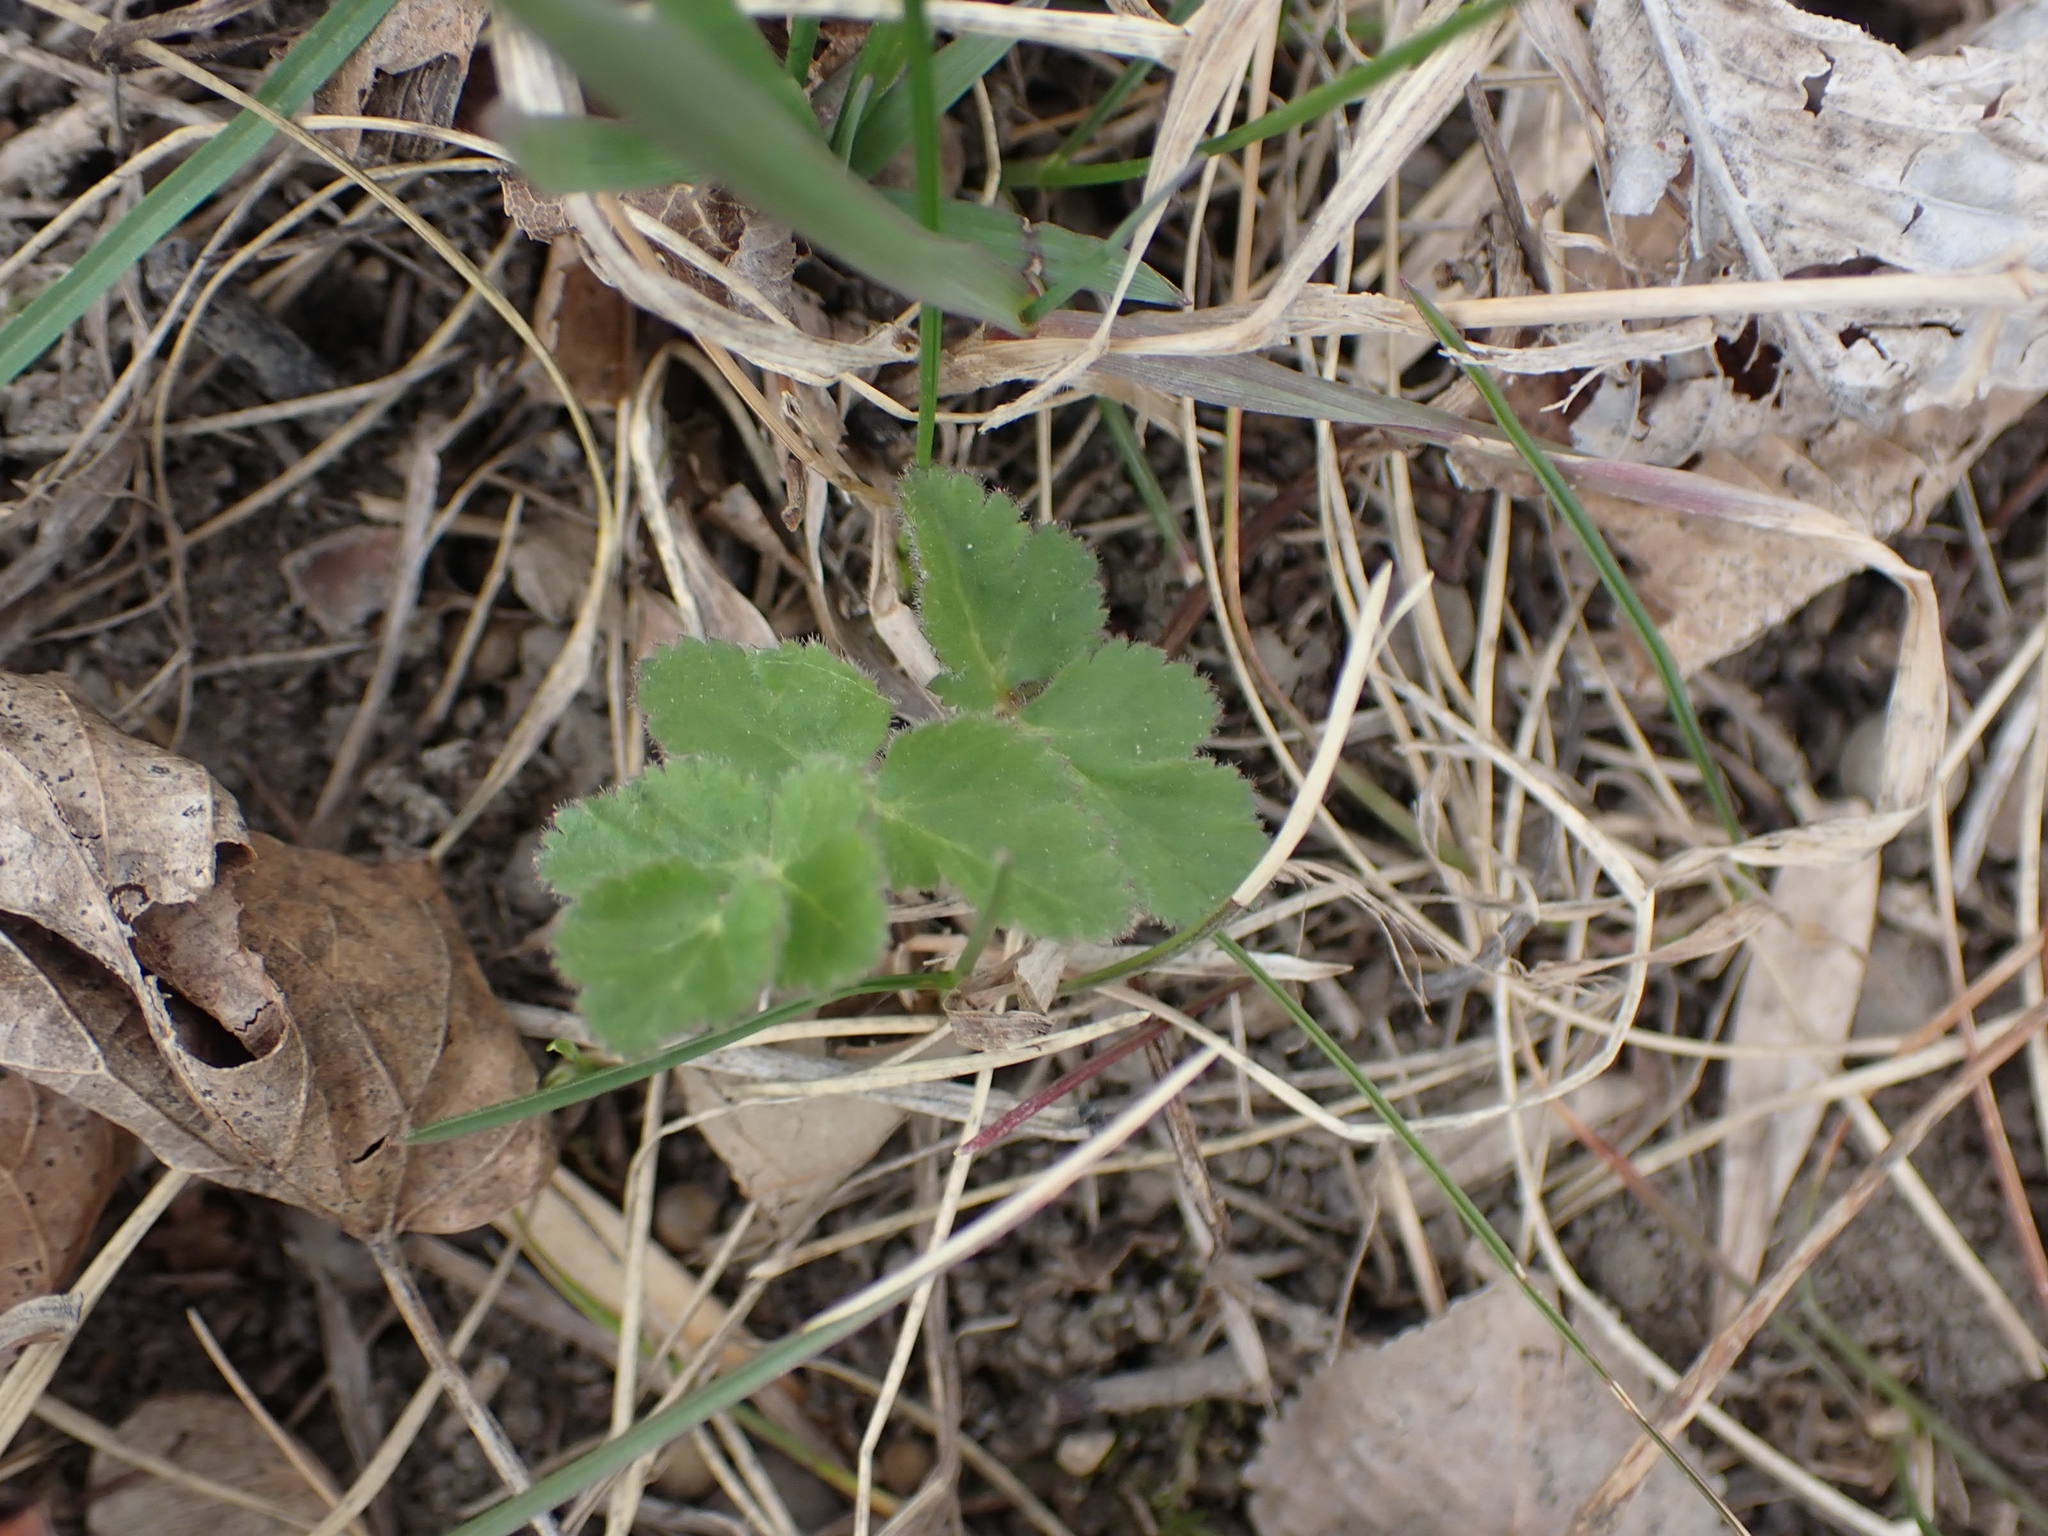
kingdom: Plantae
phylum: Tracheophyta
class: Magnoliopsida
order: Apiales
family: Apiaceae
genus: Pastinaca
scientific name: Pastinaca sativa
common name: Wild parsnip
